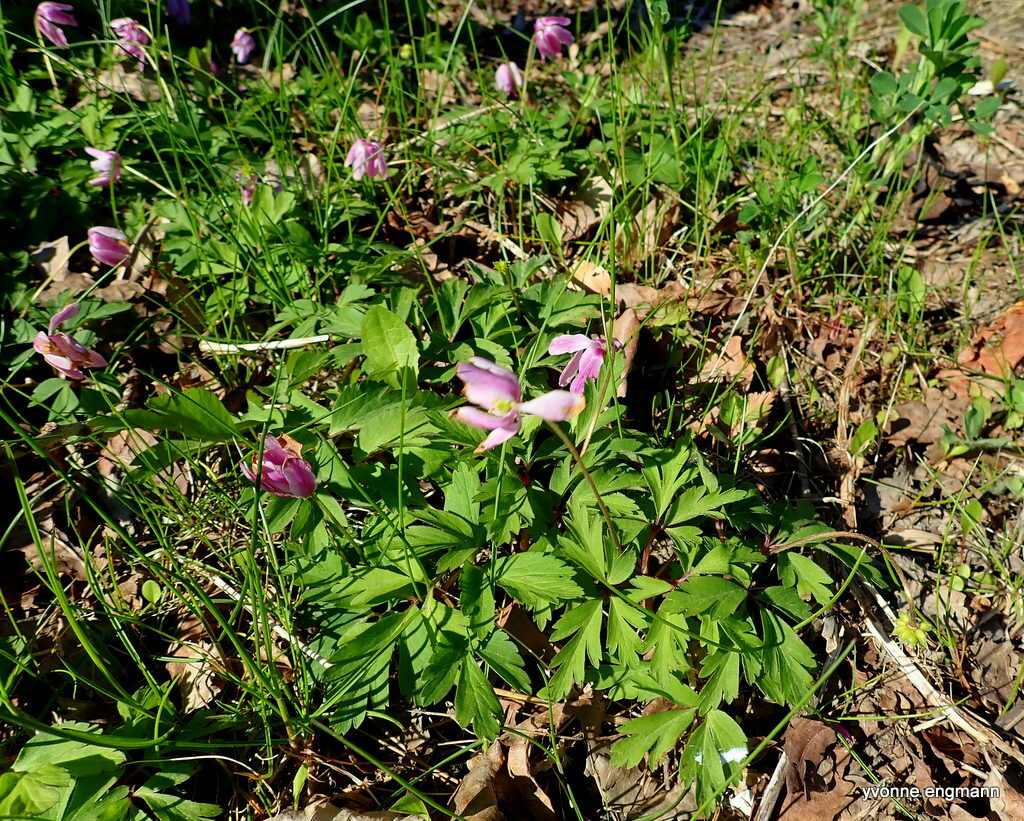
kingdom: Plantae
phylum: Tracheophyta
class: Magnoliopsida
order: Ranunculales
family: Ranunculaceae
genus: Anemone
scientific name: Anemone nemorosa
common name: Wood anemone
